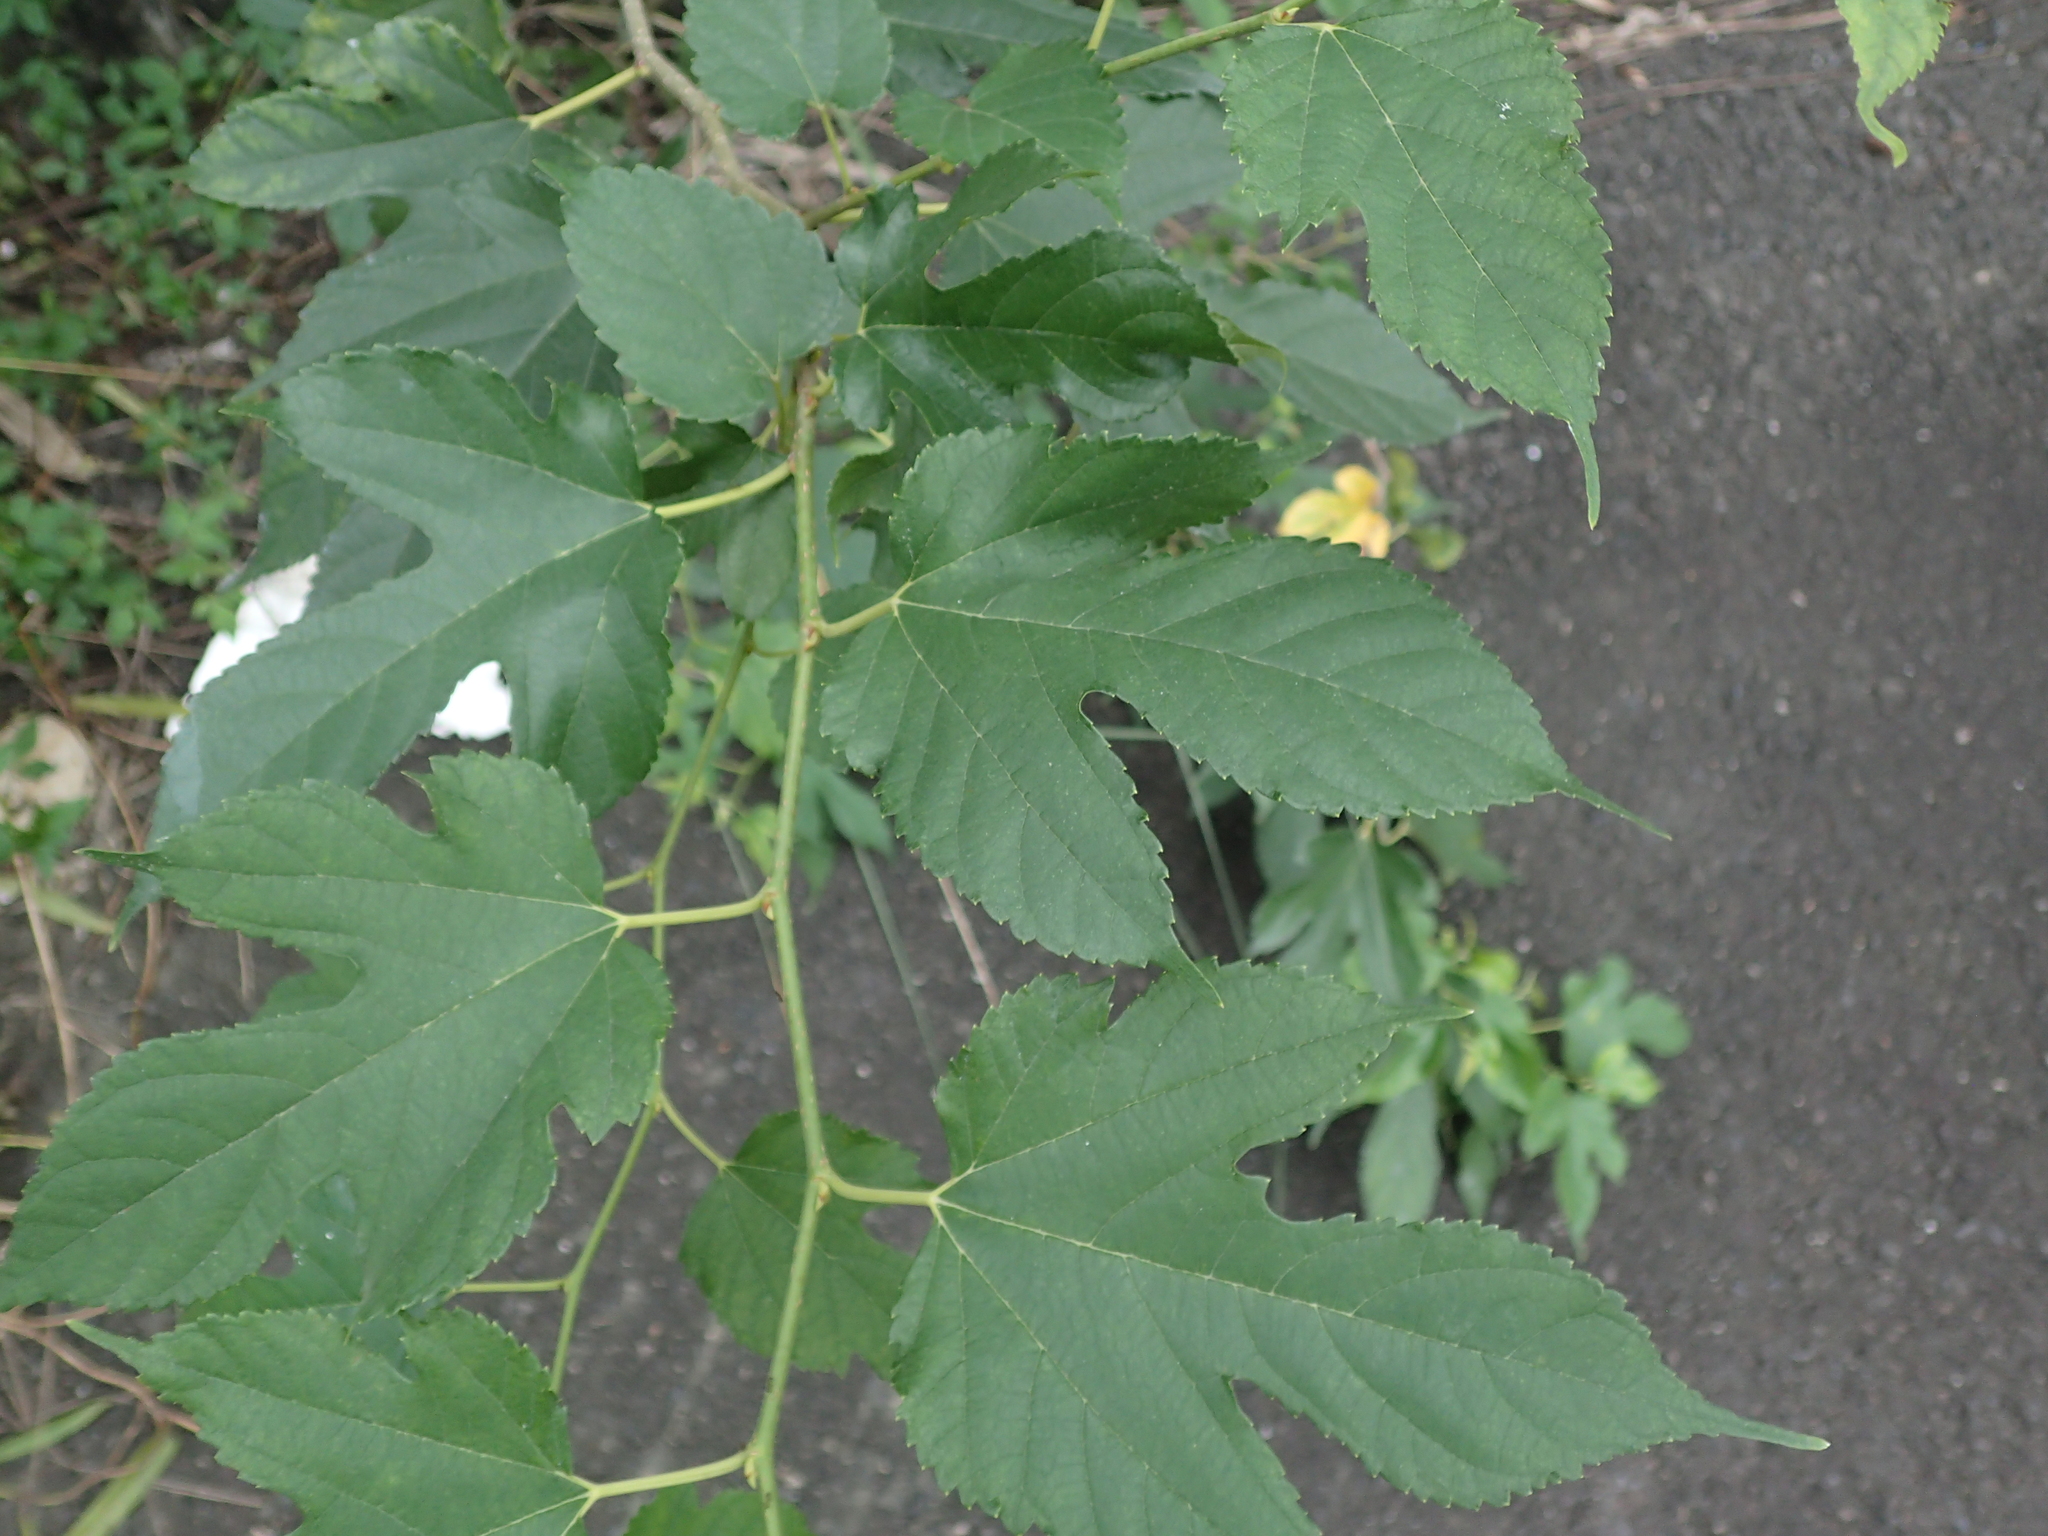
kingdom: Plantae
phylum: Tracheophyta
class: Magnoliopsida
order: Rosales
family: Moraceae
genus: Morus
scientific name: Morus indica
